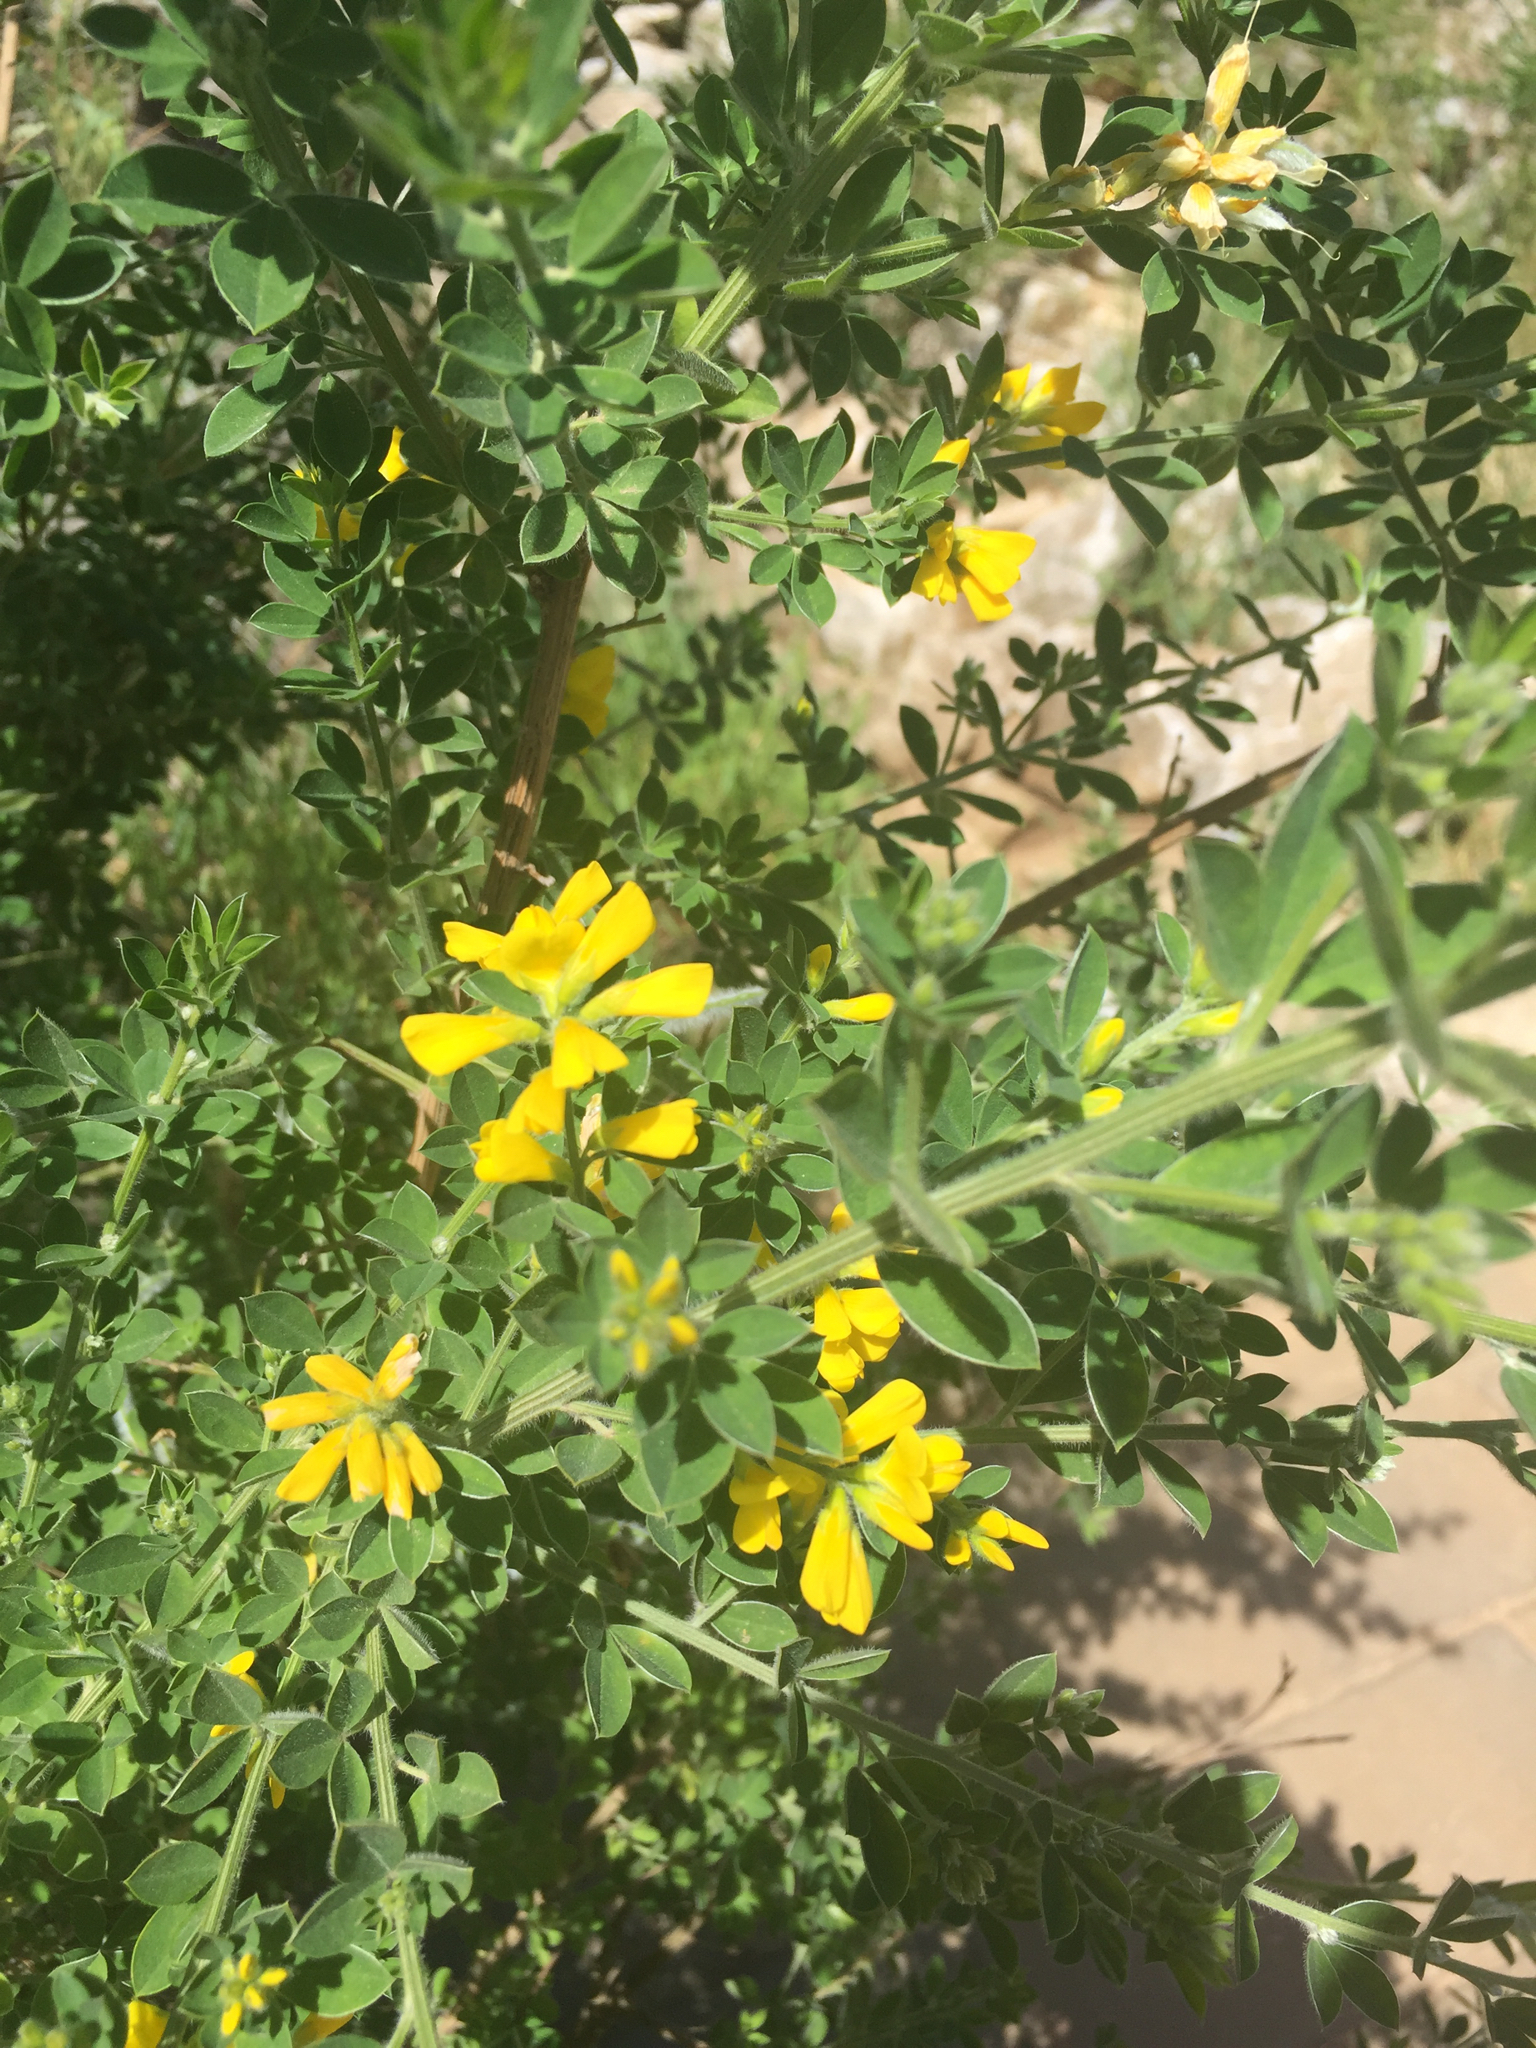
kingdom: Plantae
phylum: Tracheophyta
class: Magnoliopsida
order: Fabales
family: Fabaceae
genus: Genista
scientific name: Genista monspessulana
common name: Montpellier broom
